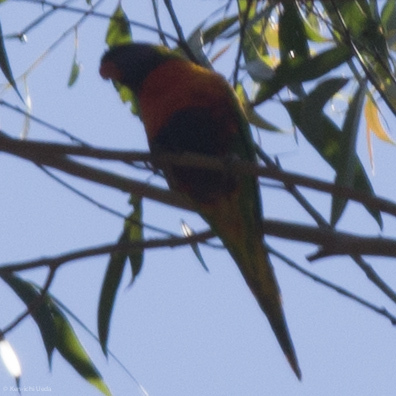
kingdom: Animalia
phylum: Chordata
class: Aves
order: Psittaciformes
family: Psittacidae
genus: Trichoglossus
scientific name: Trichoglossus haematodus
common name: Coconut lorikeet
